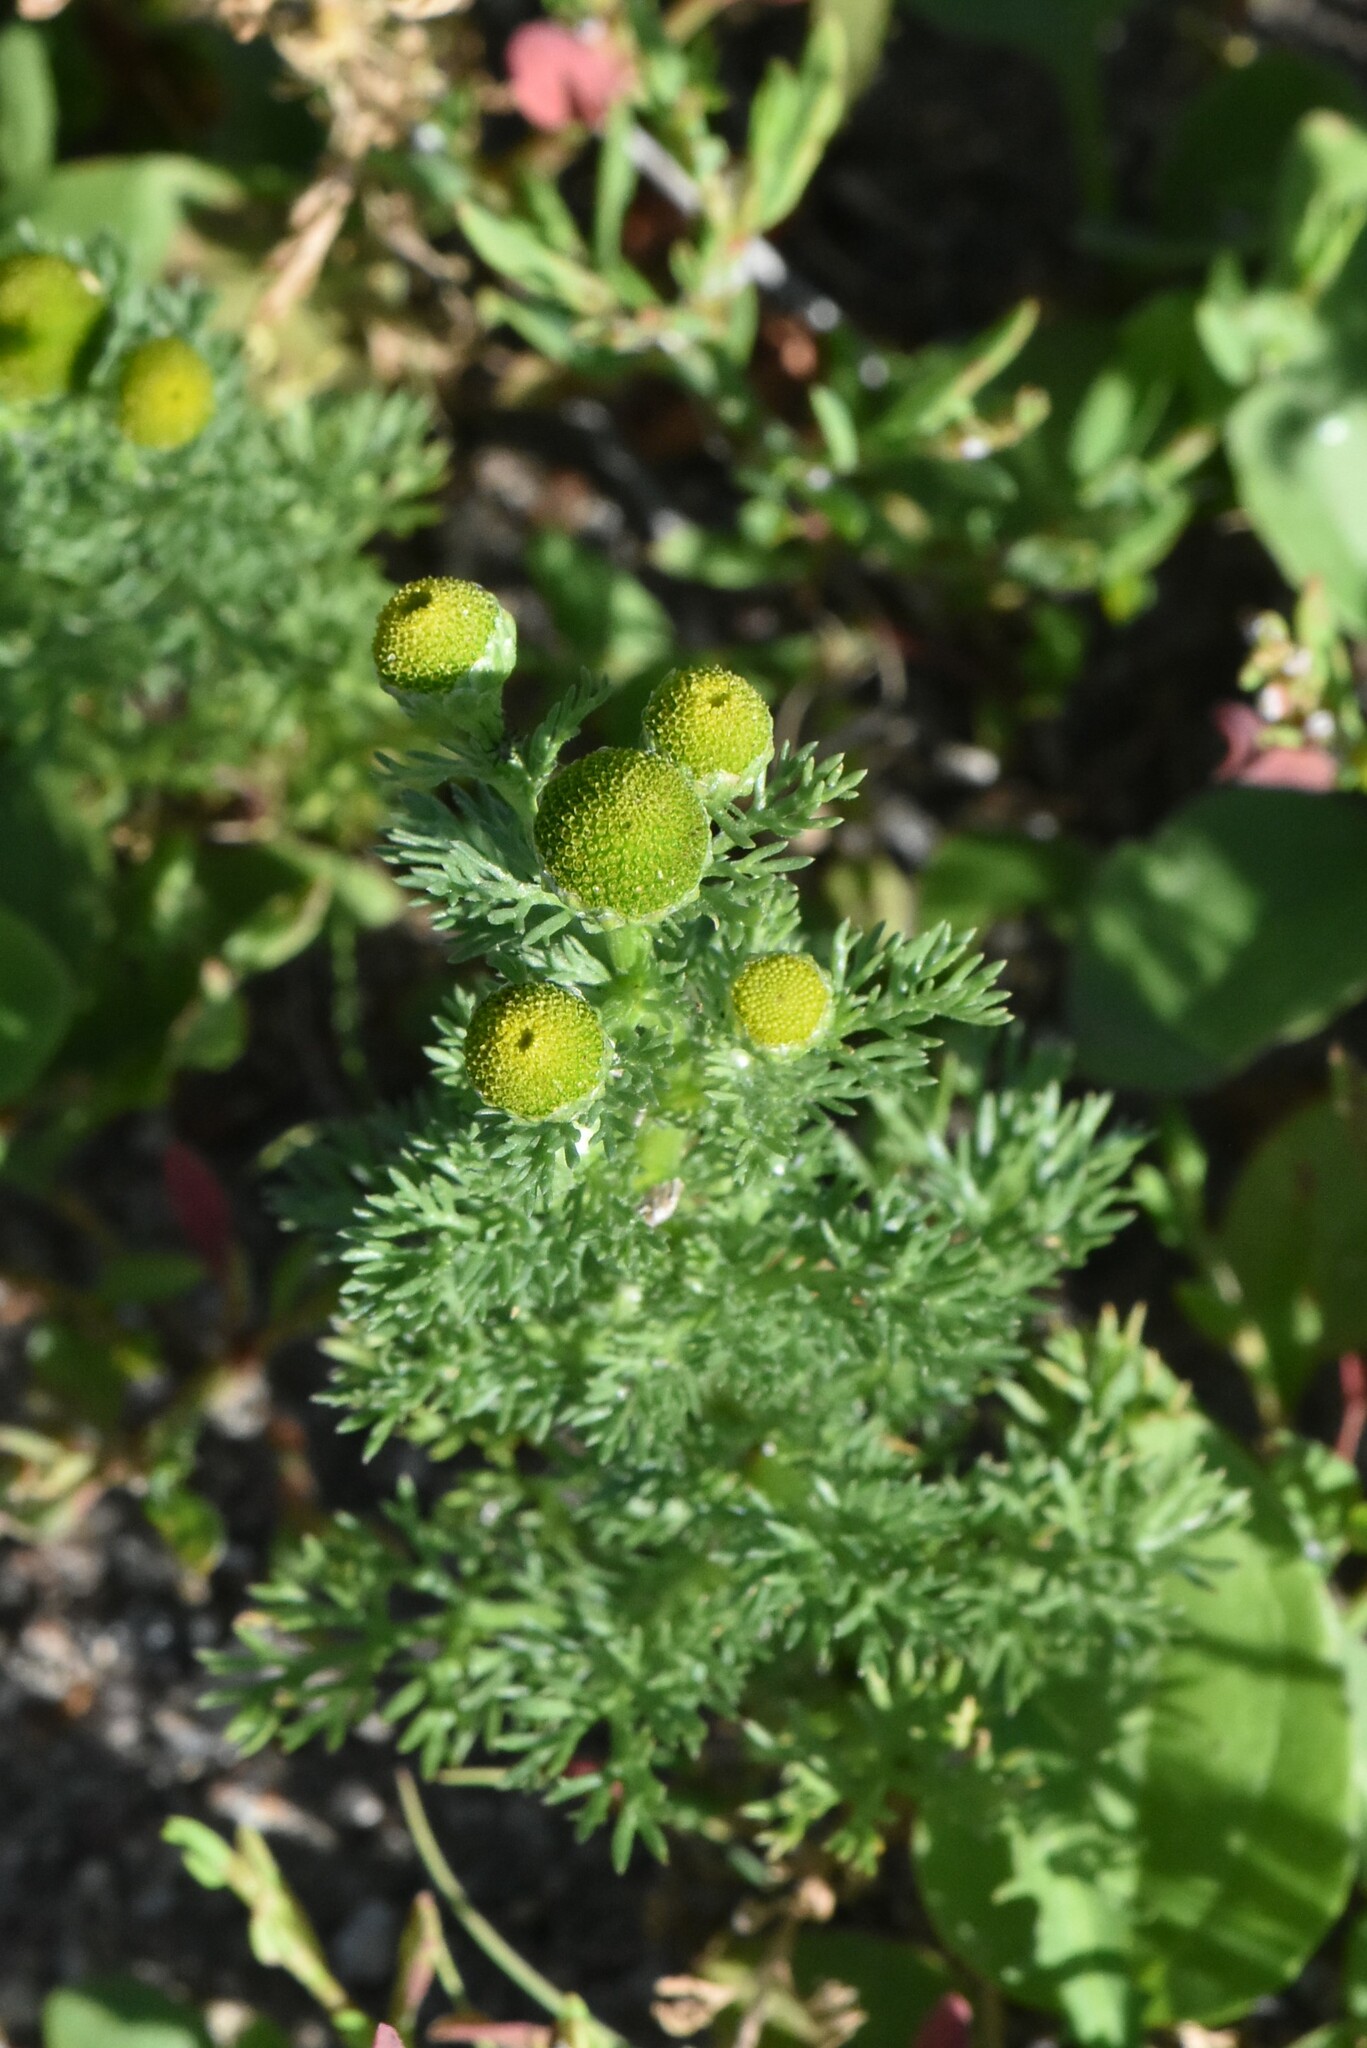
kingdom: Plantae
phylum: Tracheophyta
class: Magnoliopsida
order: Asterales
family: Asteraceae
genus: Matricaria
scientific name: Matricaria discoidea
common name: Disc mayweed
